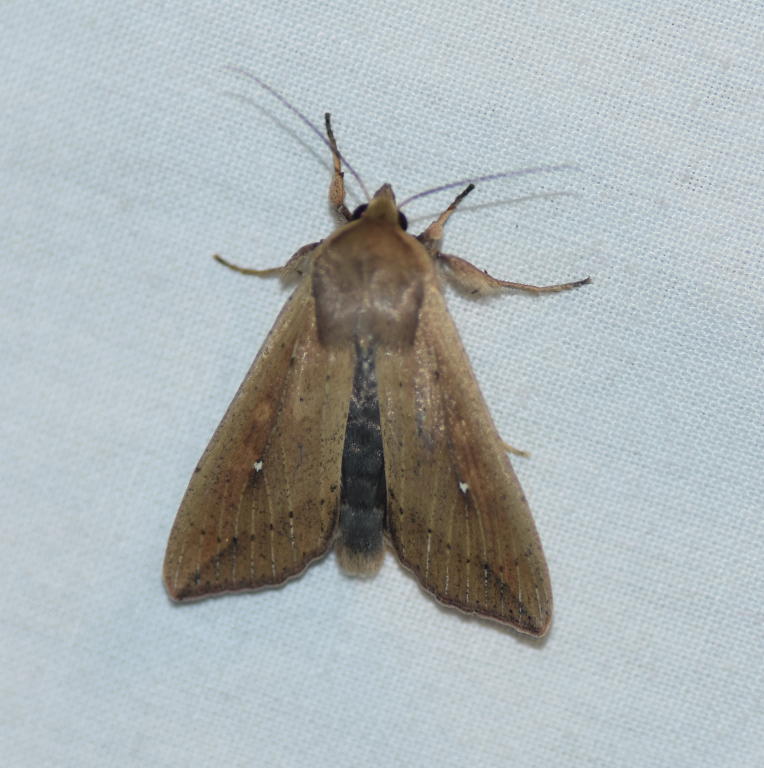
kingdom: Animalia
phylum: Arthropoda
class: Insecta
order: Lepidoptera
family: Noctuidae
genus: Mythimna
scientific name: Mythimna unipuncta
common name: White-speck
